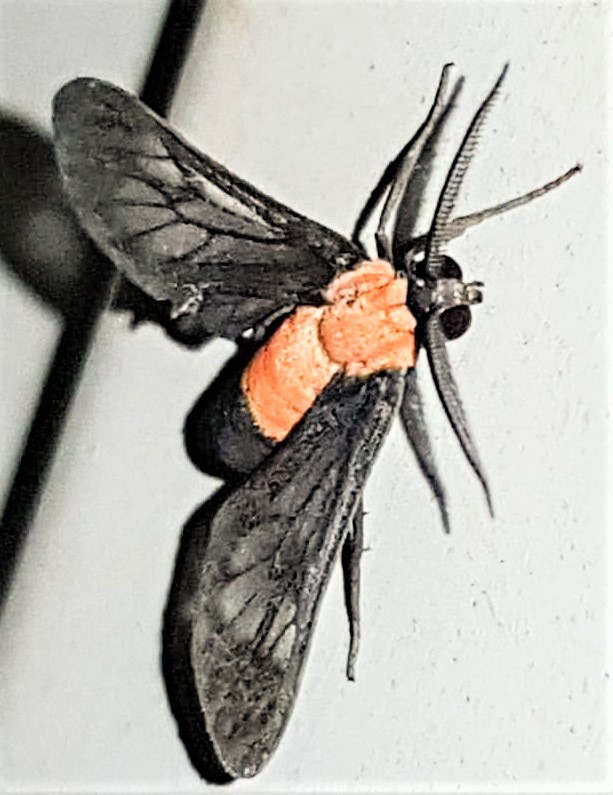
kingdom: Animalia
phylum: Arthropoda
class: Insecta
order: Lepidoptera
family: Erebidae
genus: Holophaea
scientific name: Holophaea vesta
